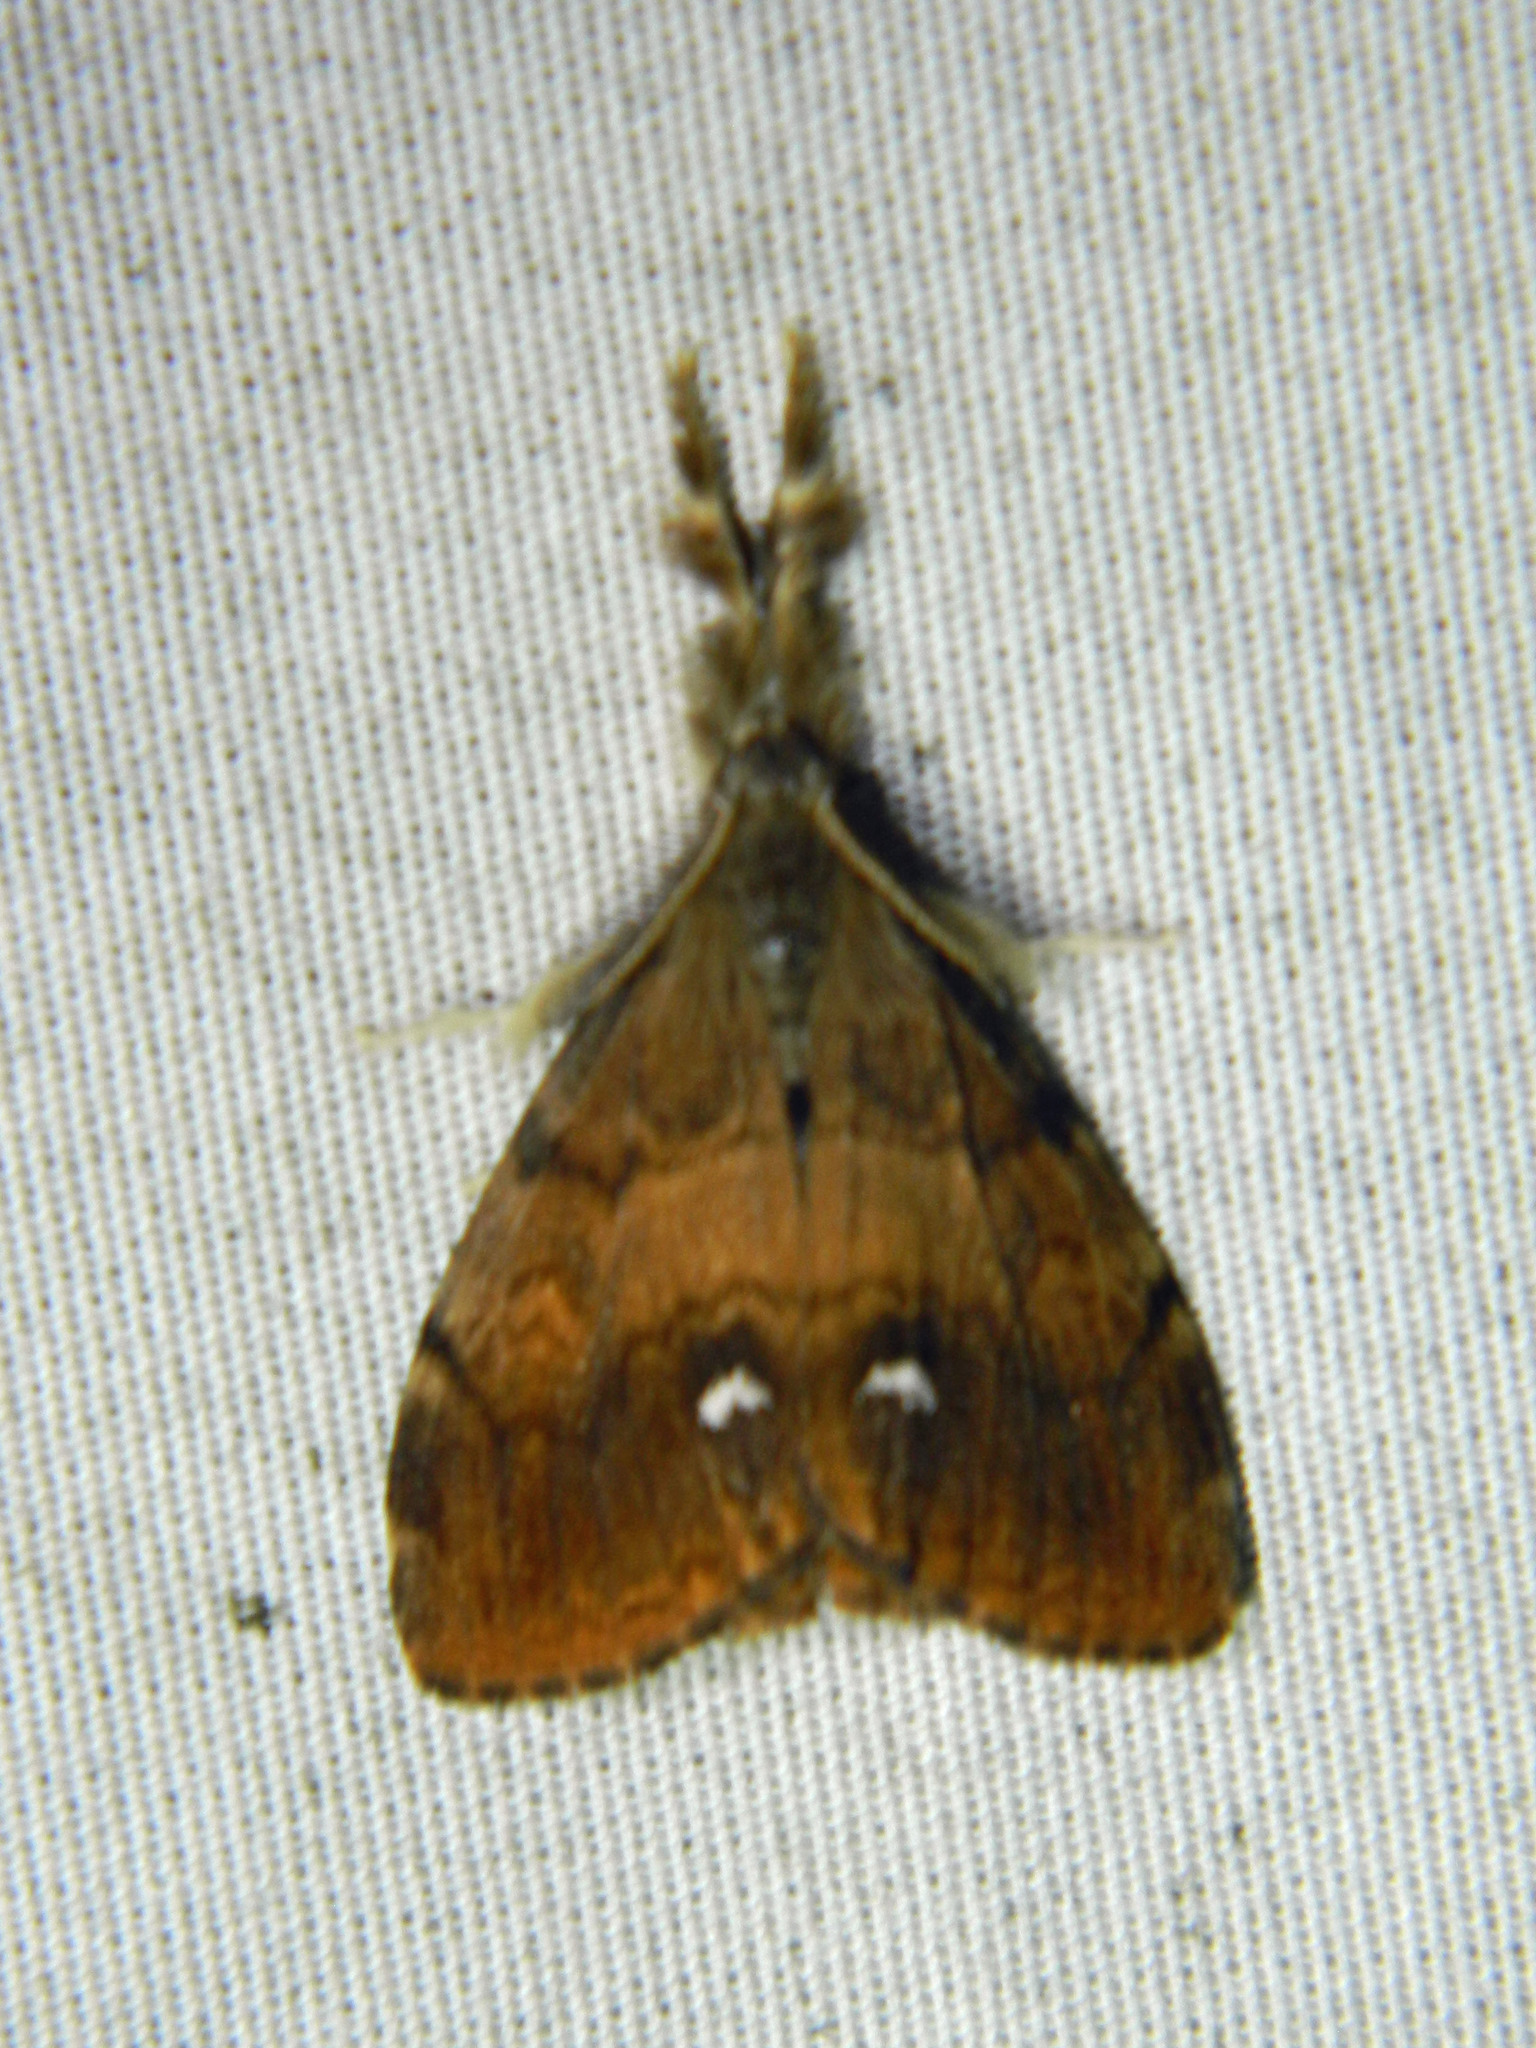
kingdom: Animalia
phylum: Arthropoda
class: Insecta
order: Lepidoptera
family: Erebidae
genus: Orgyia
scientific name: Orgyia antiqua
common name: Vapourer
